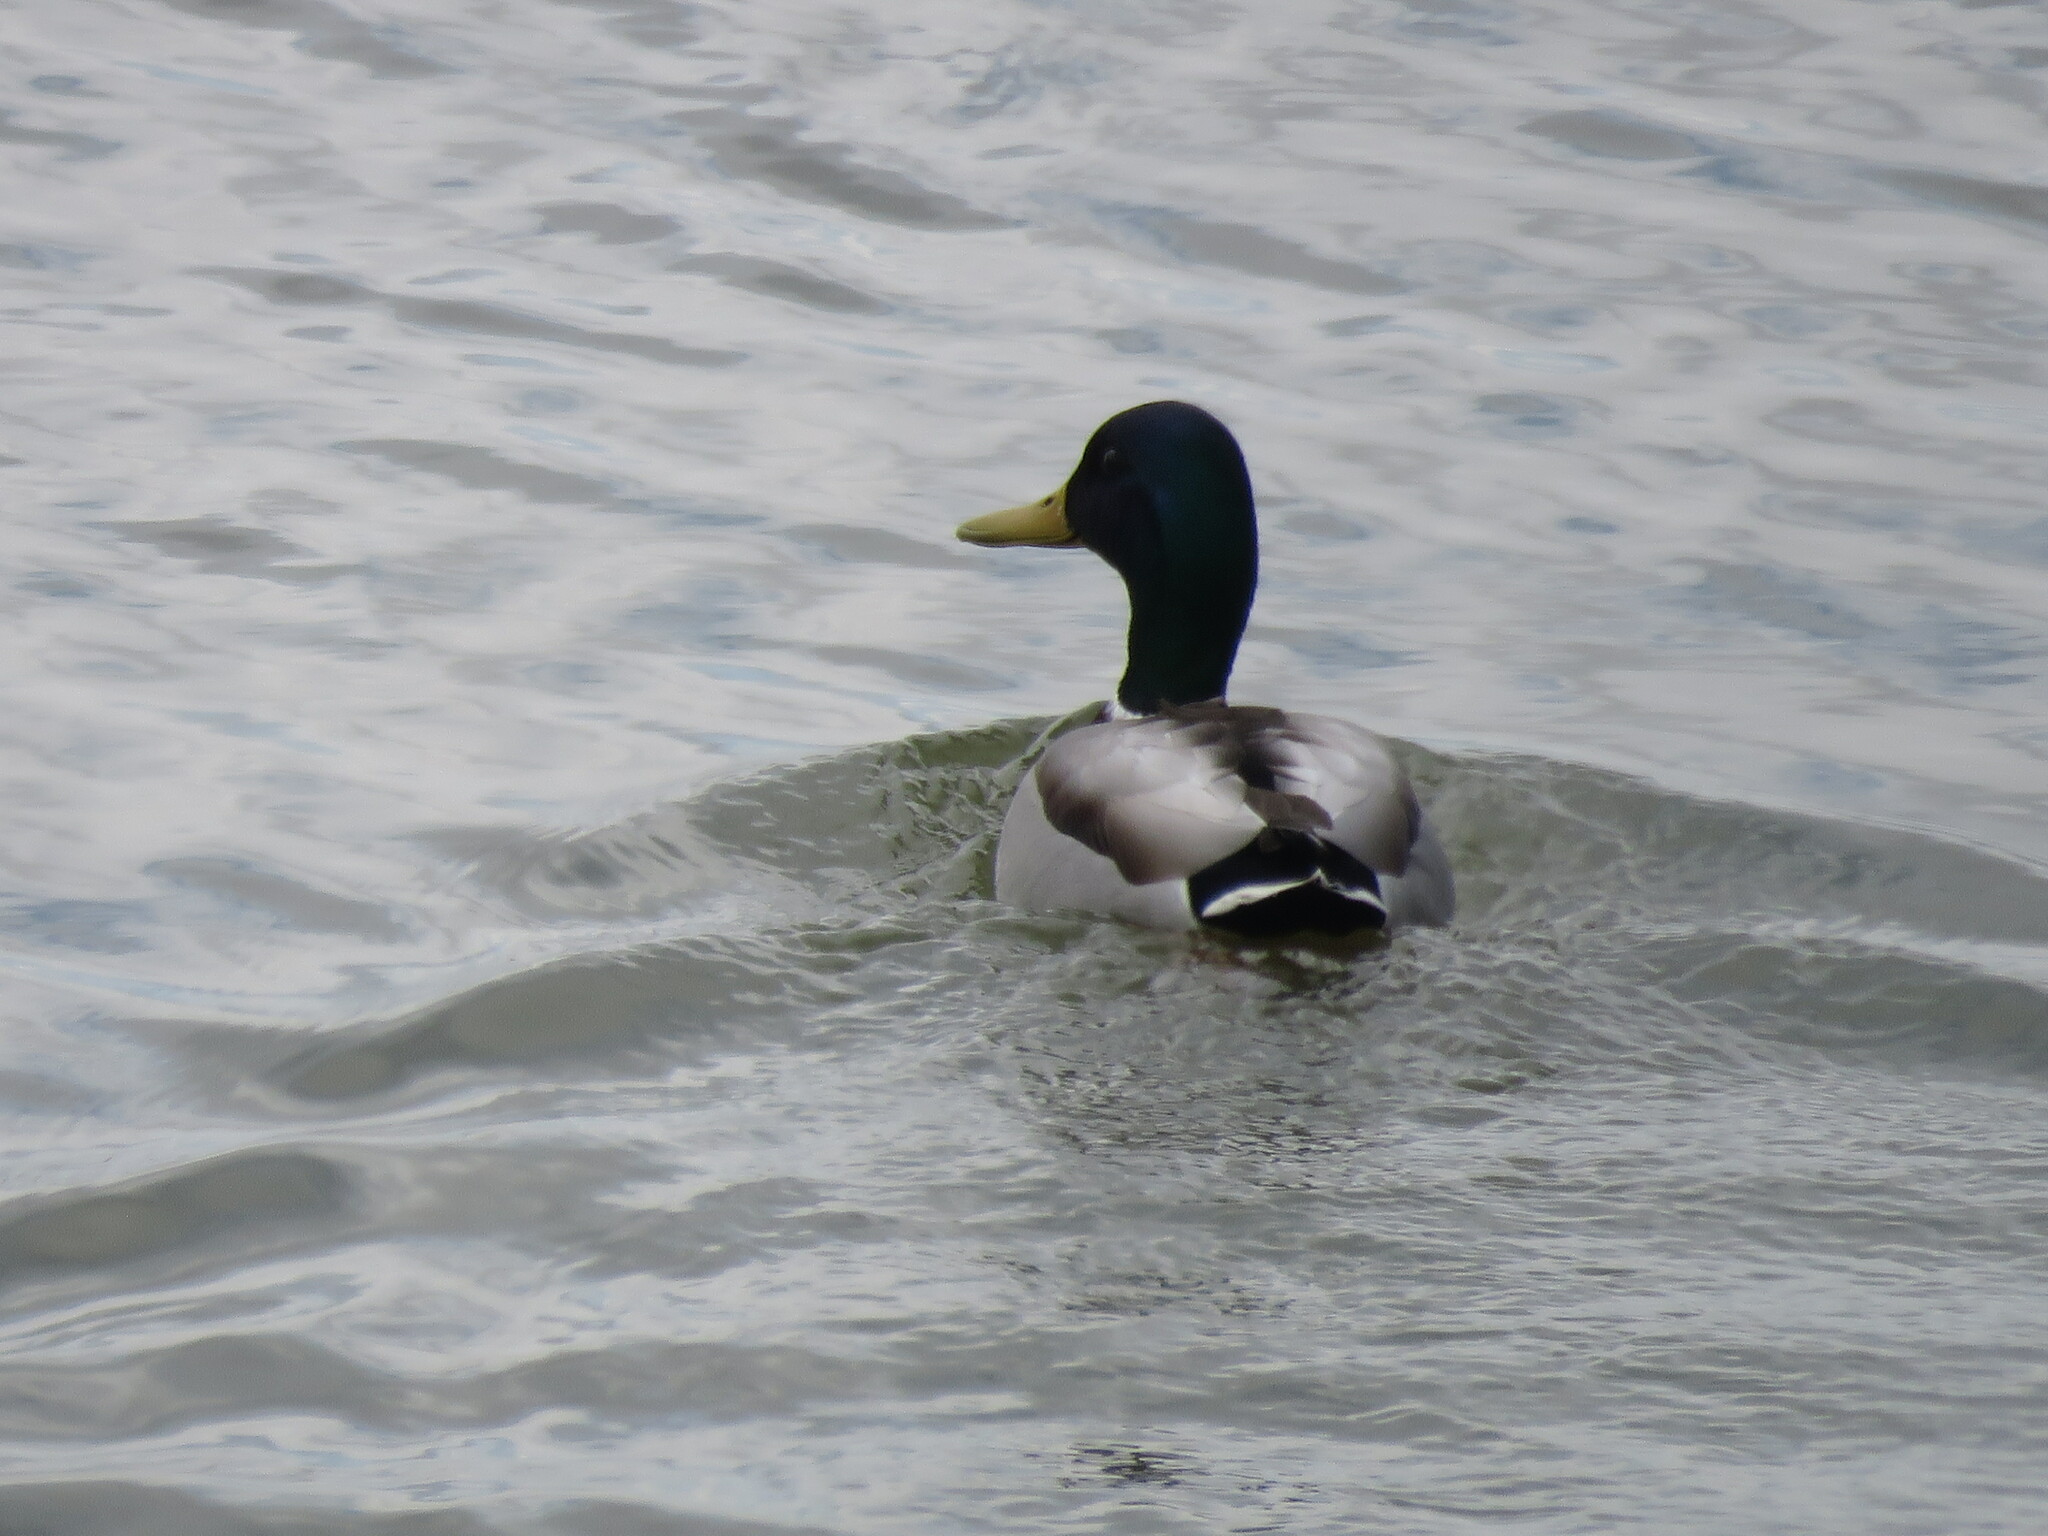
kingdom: Animalia
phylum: Chordata
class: Aves
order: Anseriformes
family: Anatidae
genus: Anas
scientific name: Anas platyrhynchos
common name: Mallard
